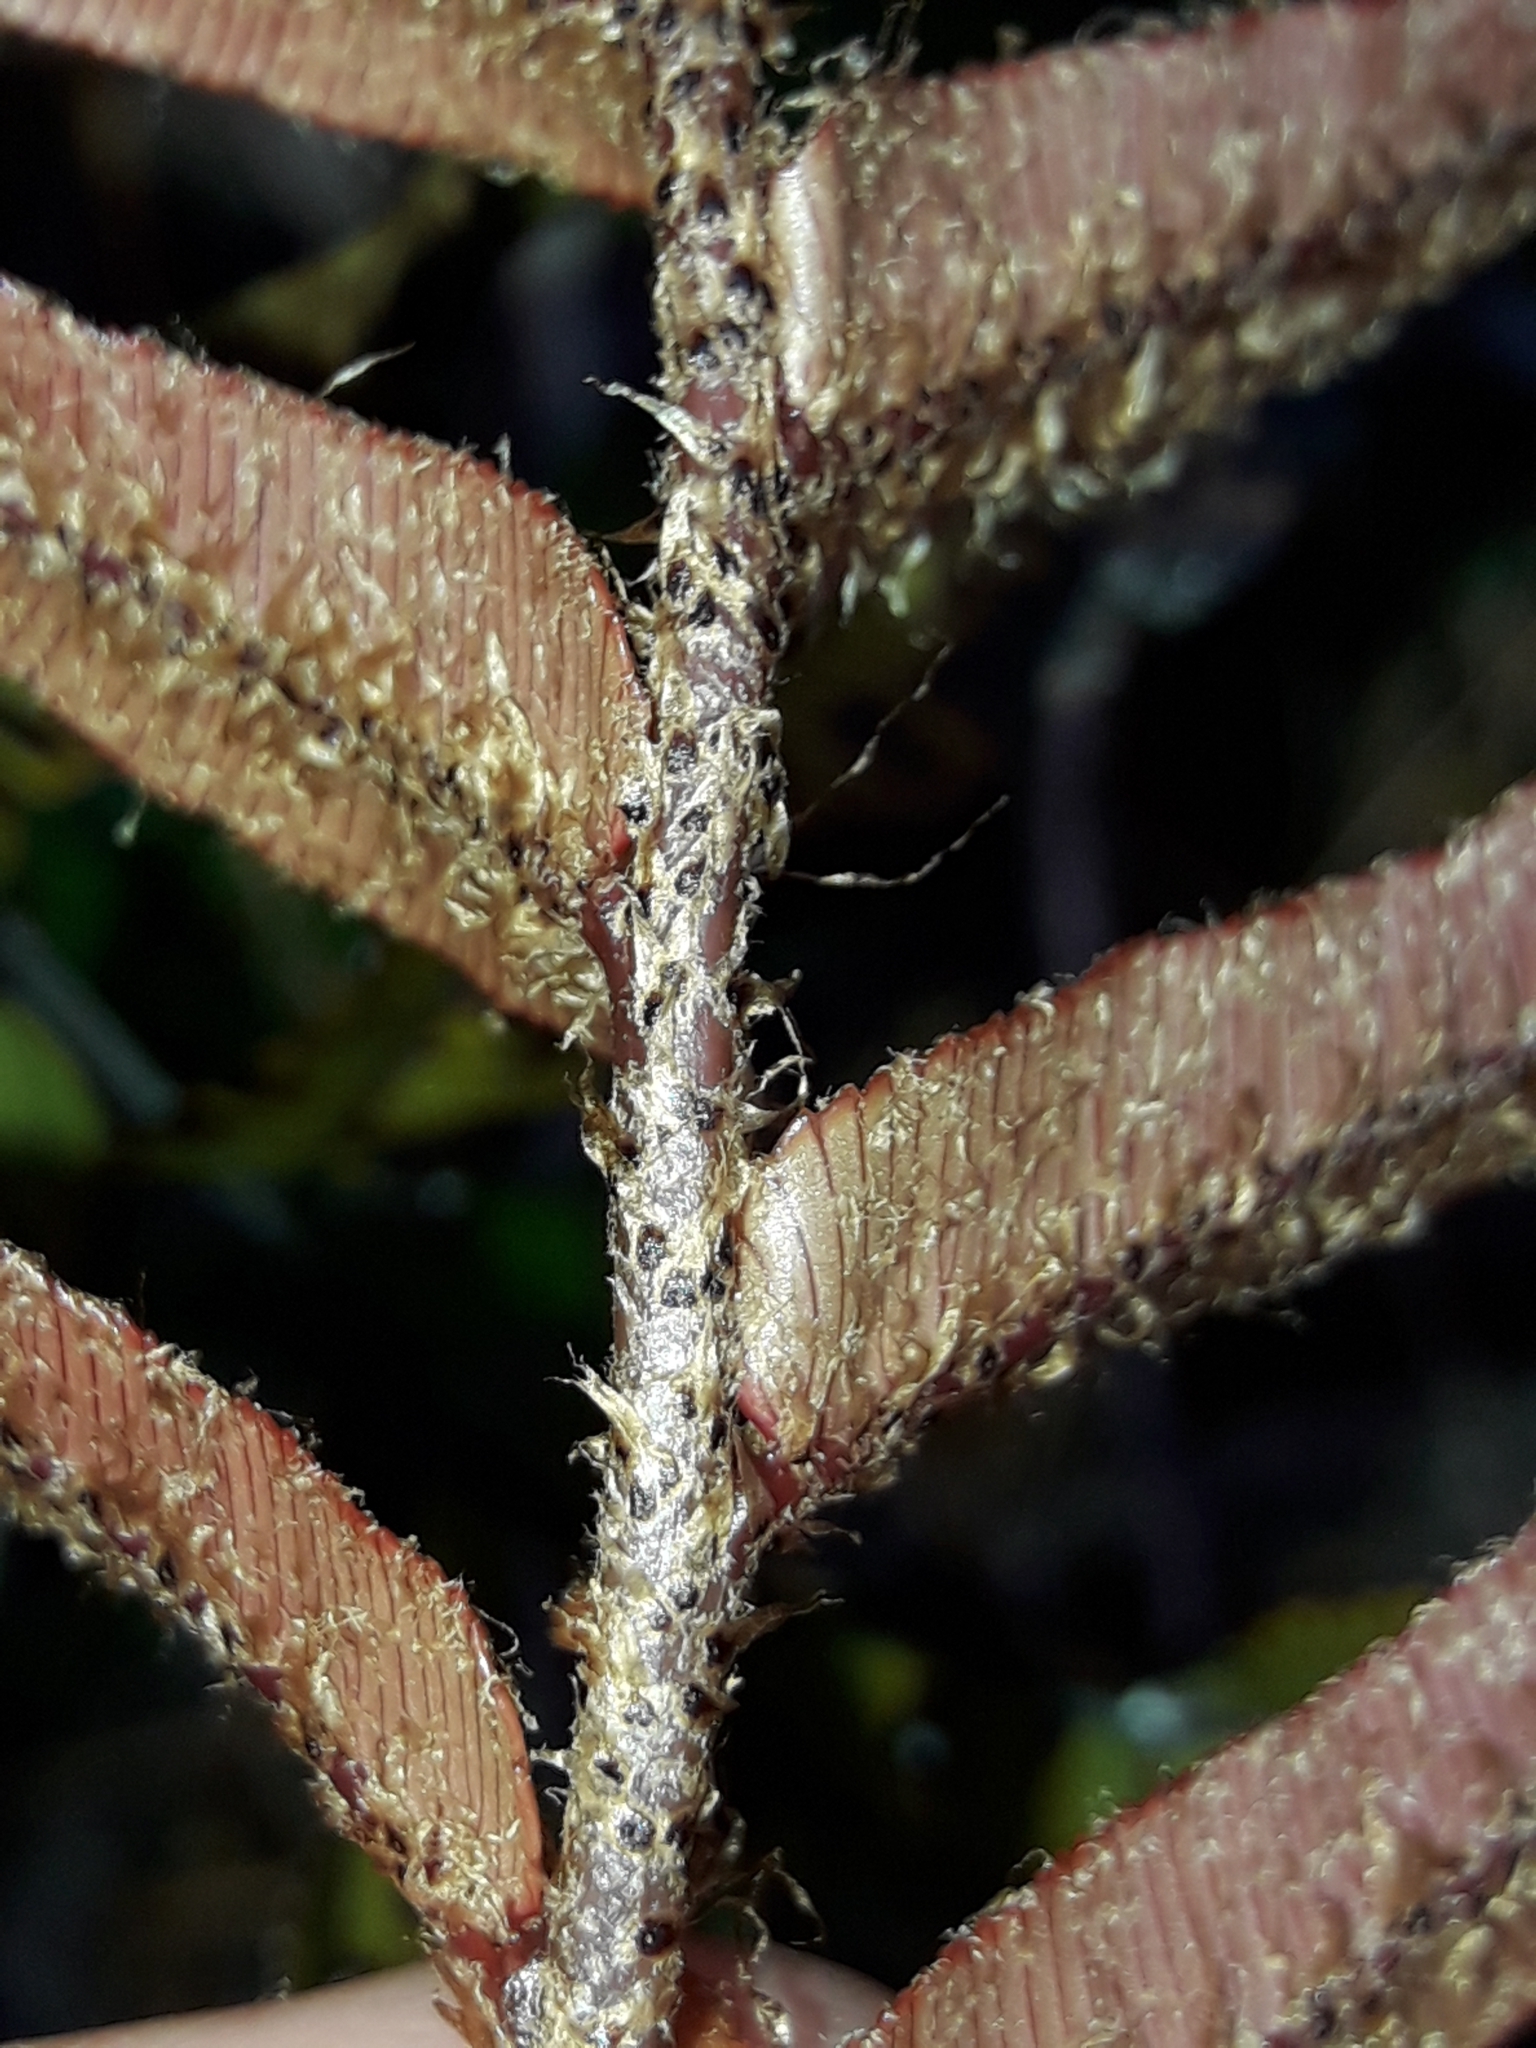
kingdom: Plantae
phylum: Tracheophyta
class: Polypodiopsida
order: Polypodiales
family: Blechnaceae
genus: Parablechnum
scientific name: Parablechnum montanum
